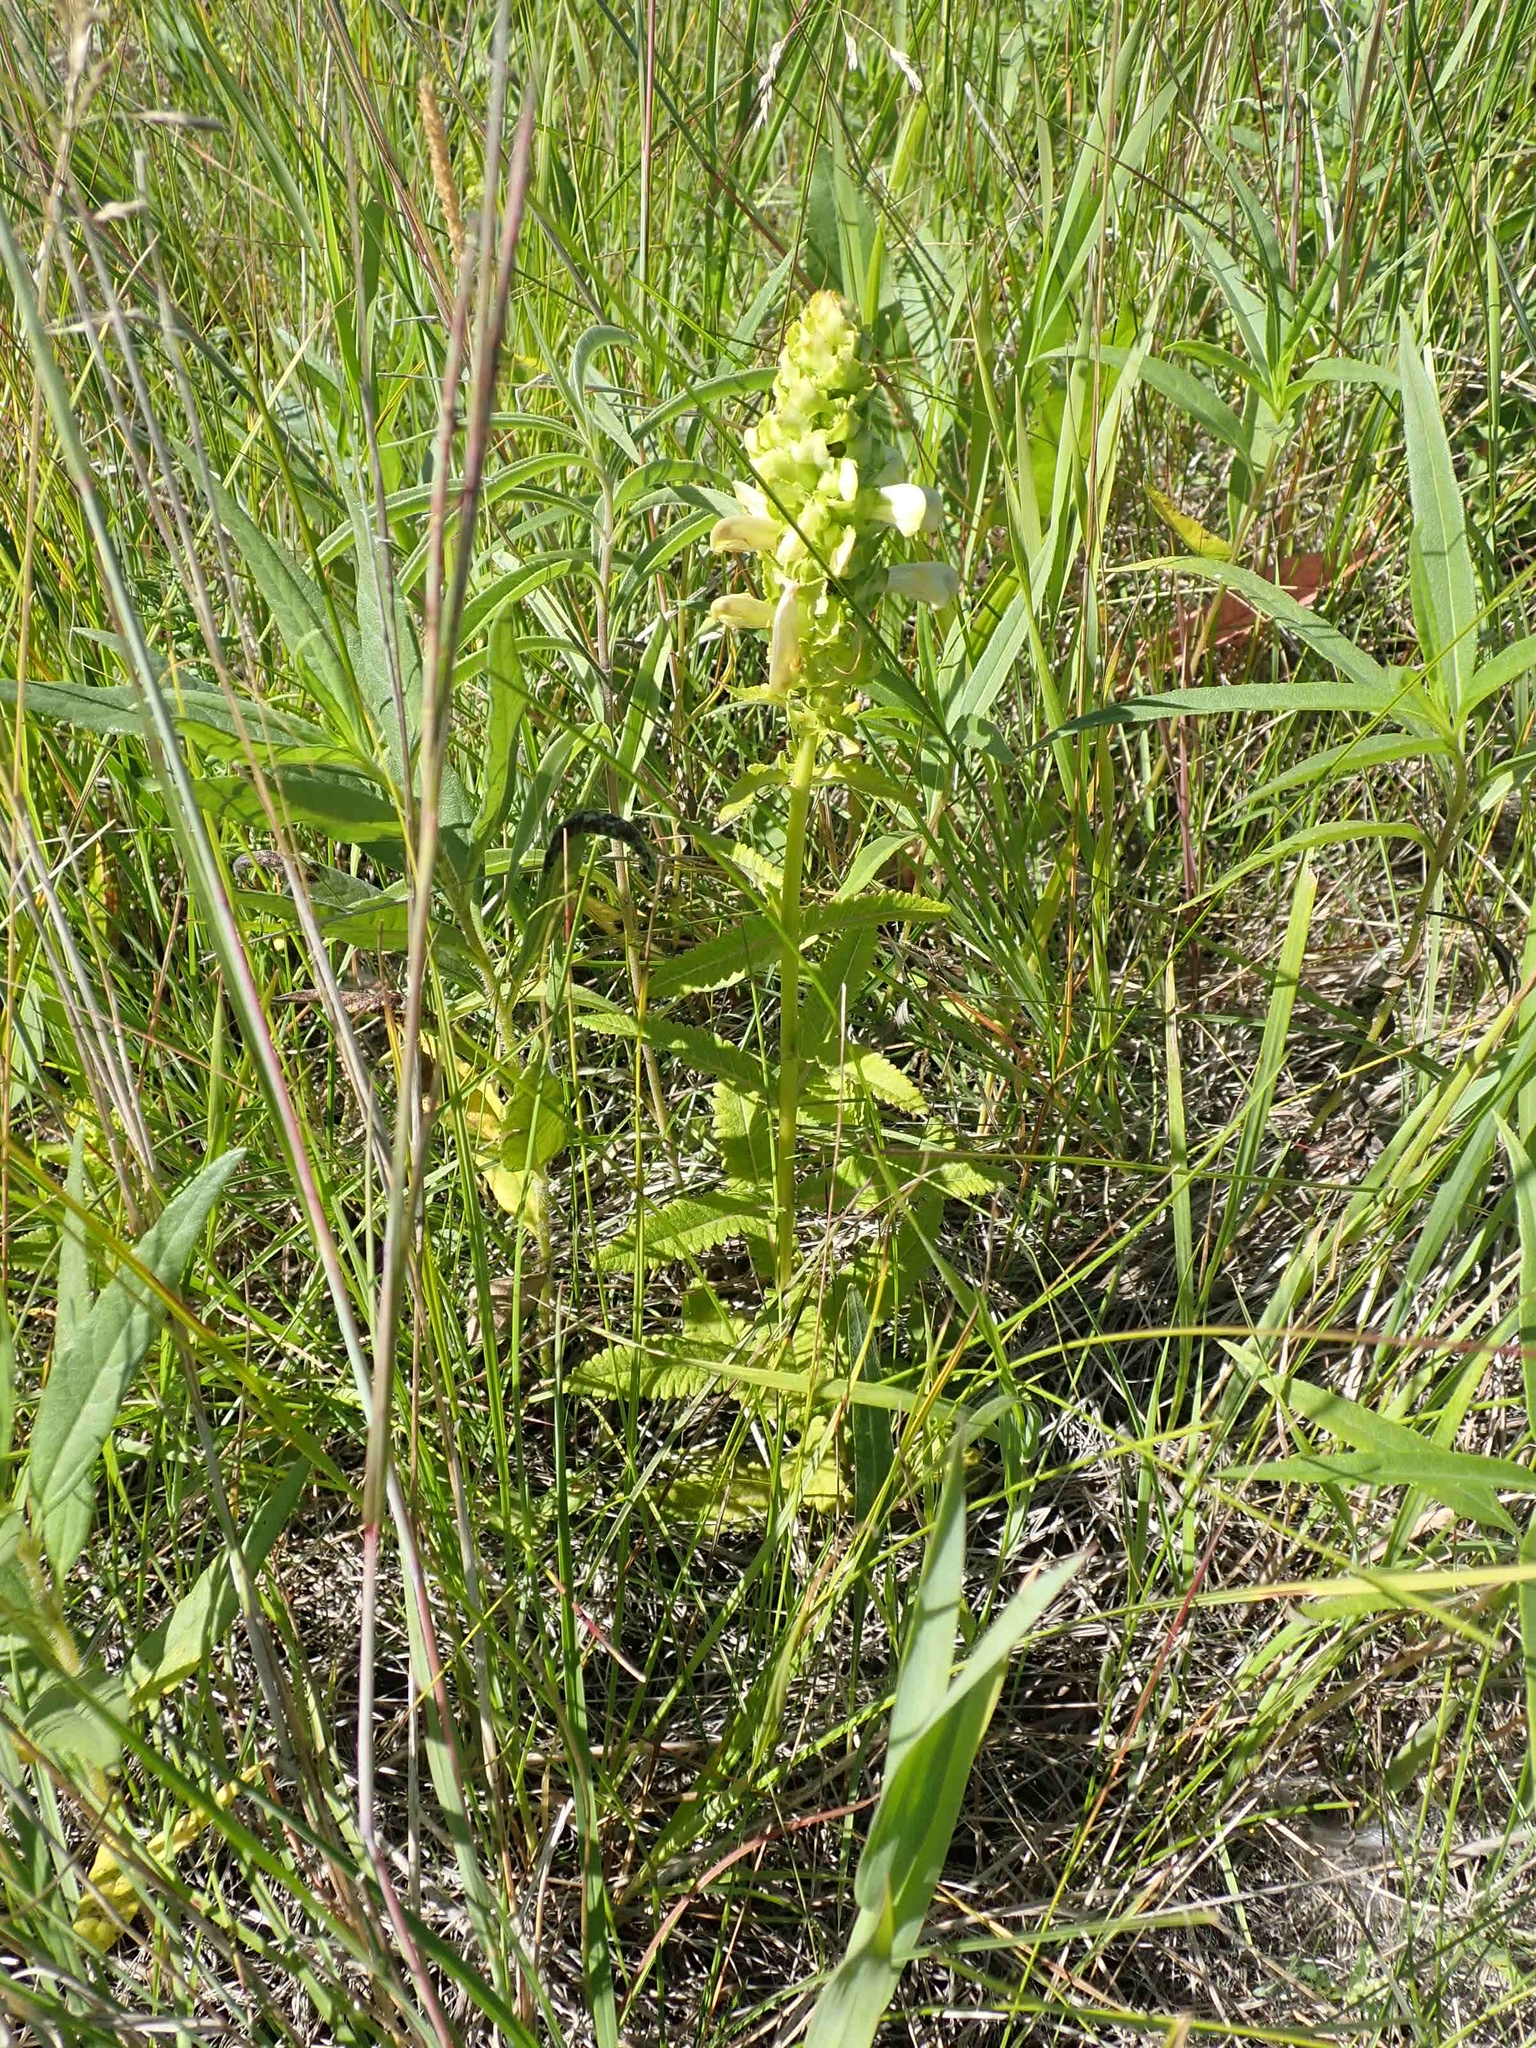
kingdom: Plantae
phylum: Tracheophyta
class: Magnoliopsida
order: Lamiales
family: Orobanchaceae
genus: Pedicularis
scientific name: Pedicularis lanceolata
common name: Swamp lousewort
